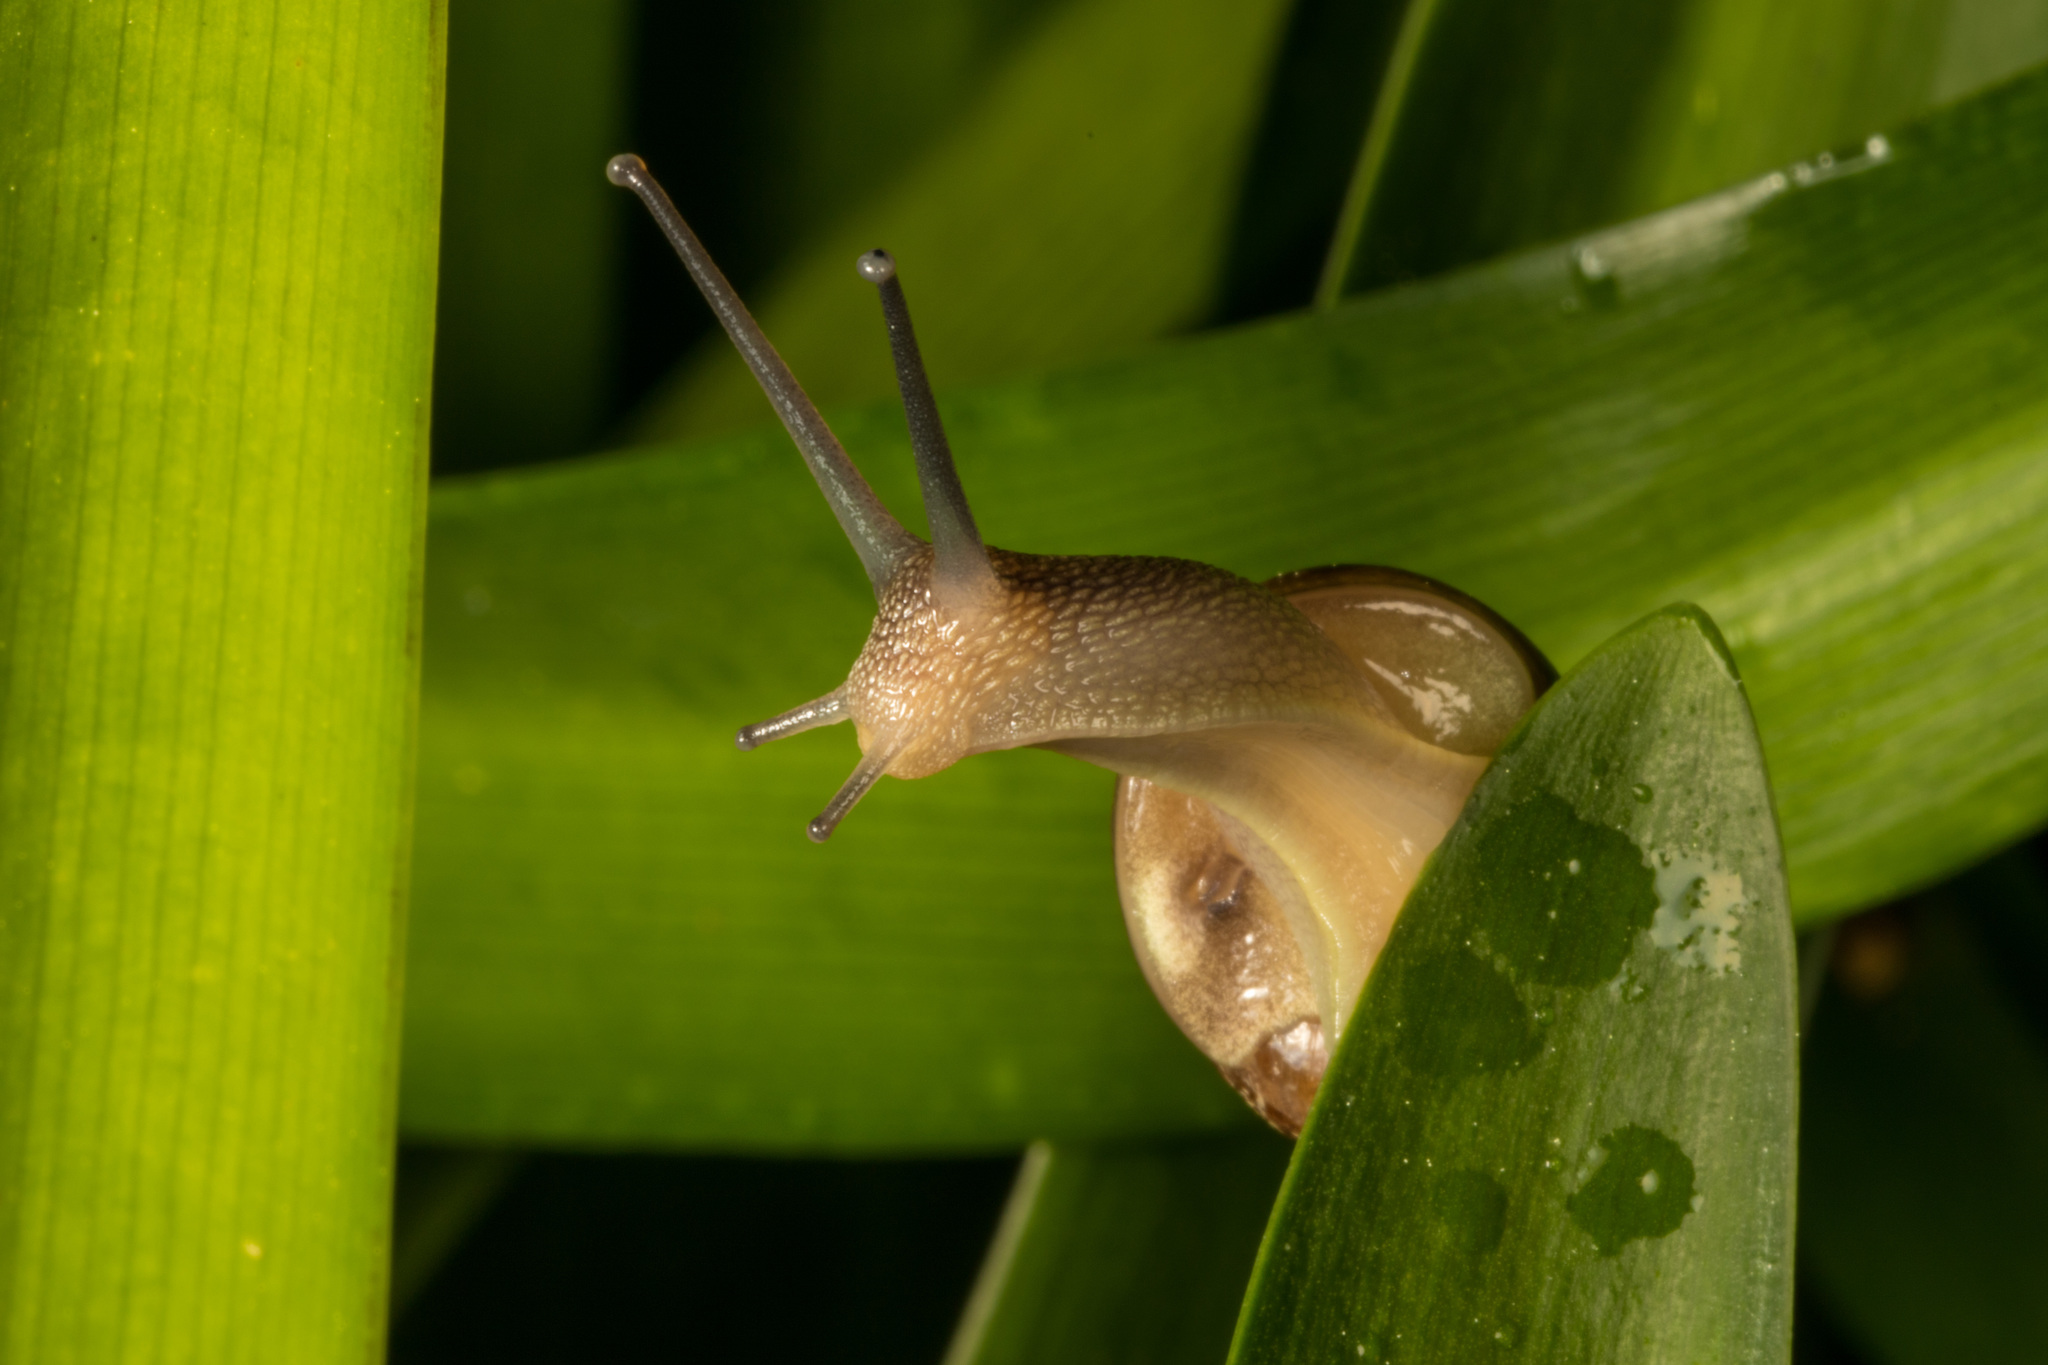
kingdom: Animalia
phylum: Mollusca
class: Gastropoda
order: Stylommatophora
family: Helicidae
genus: Cornu
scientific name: Cornu aspersum
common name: Brown garden snail
